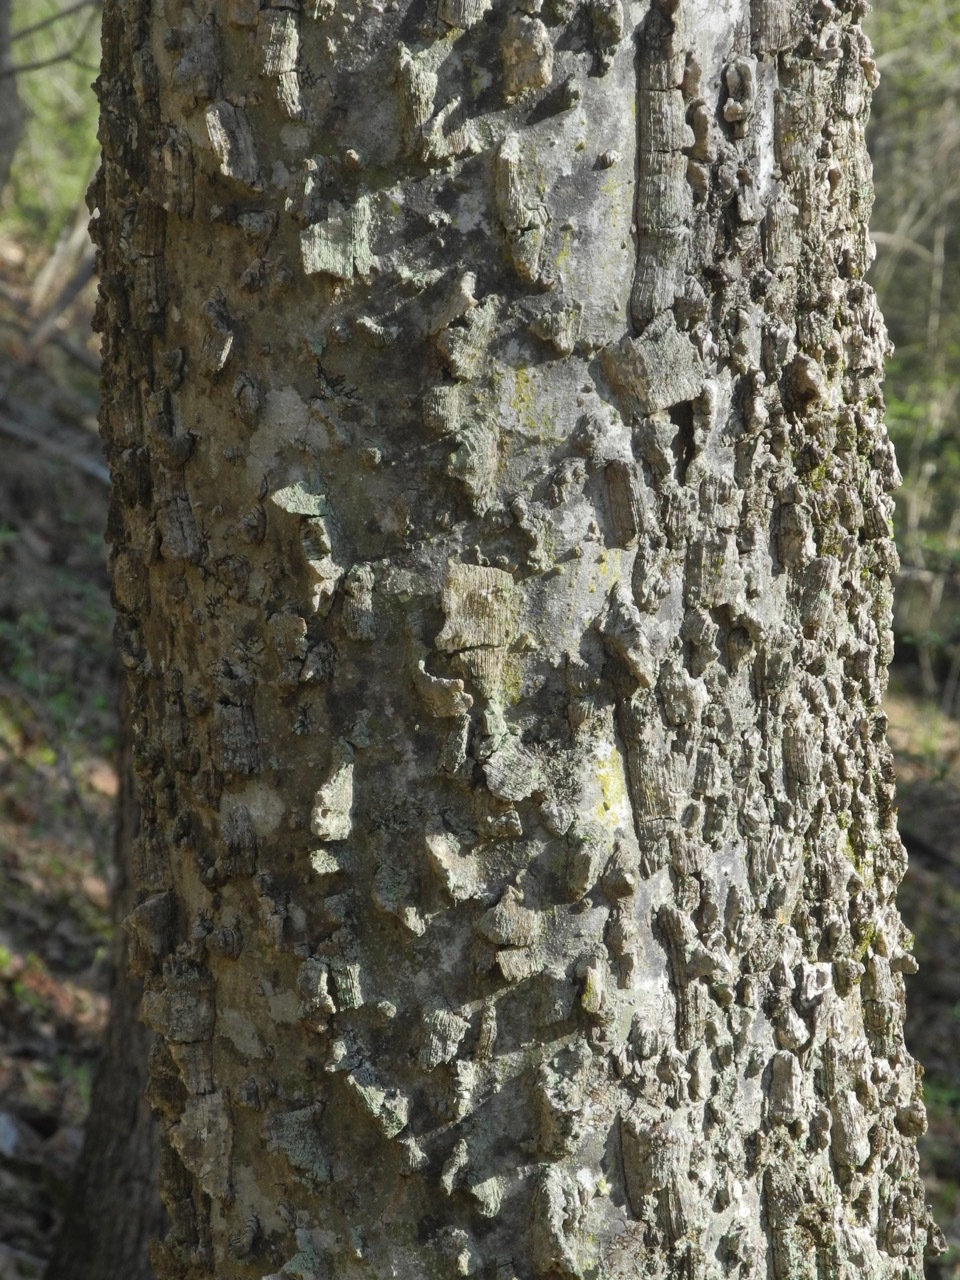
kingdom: Plantae
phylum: Tracheophyta
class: Magnoliopsida
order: Rosales
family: Cannabaceae
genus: Celtis
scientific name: Celtis laevigata
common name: Sugarberry
